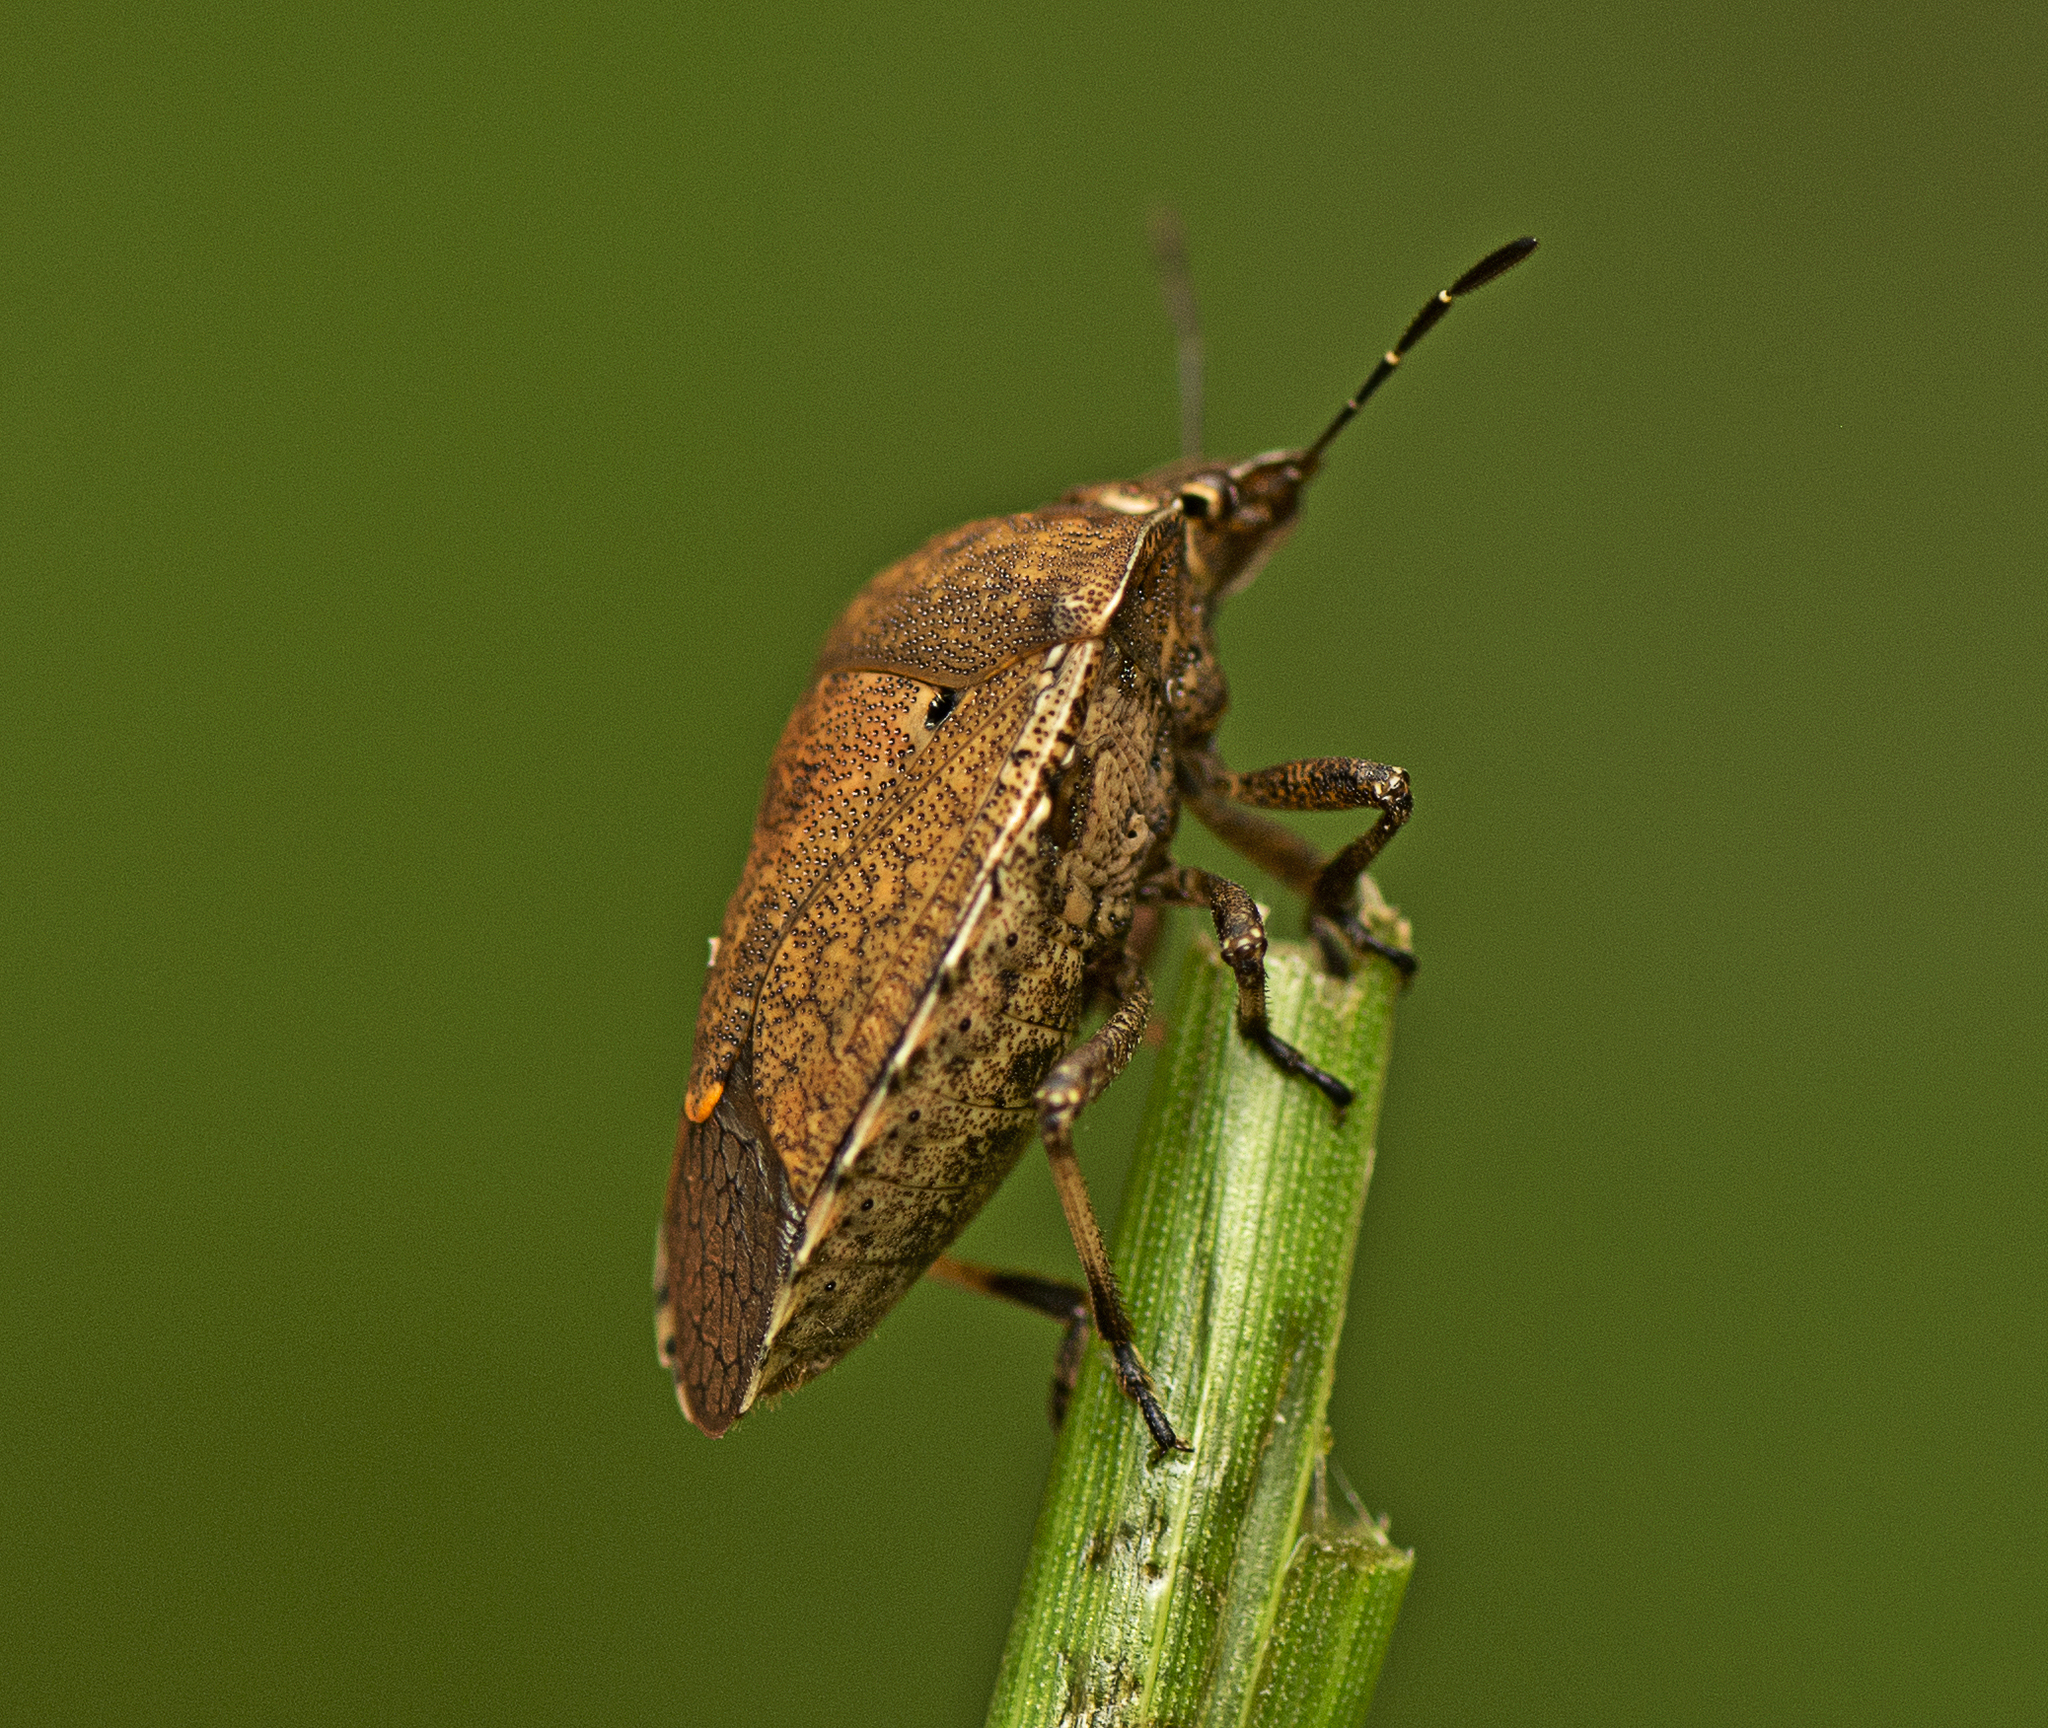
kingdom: Animalia
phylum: Arthropoda
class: Insecta
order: Hemiptera
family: Pentatomidae
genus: Dictyotus
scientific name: Dictyotus caenosus
